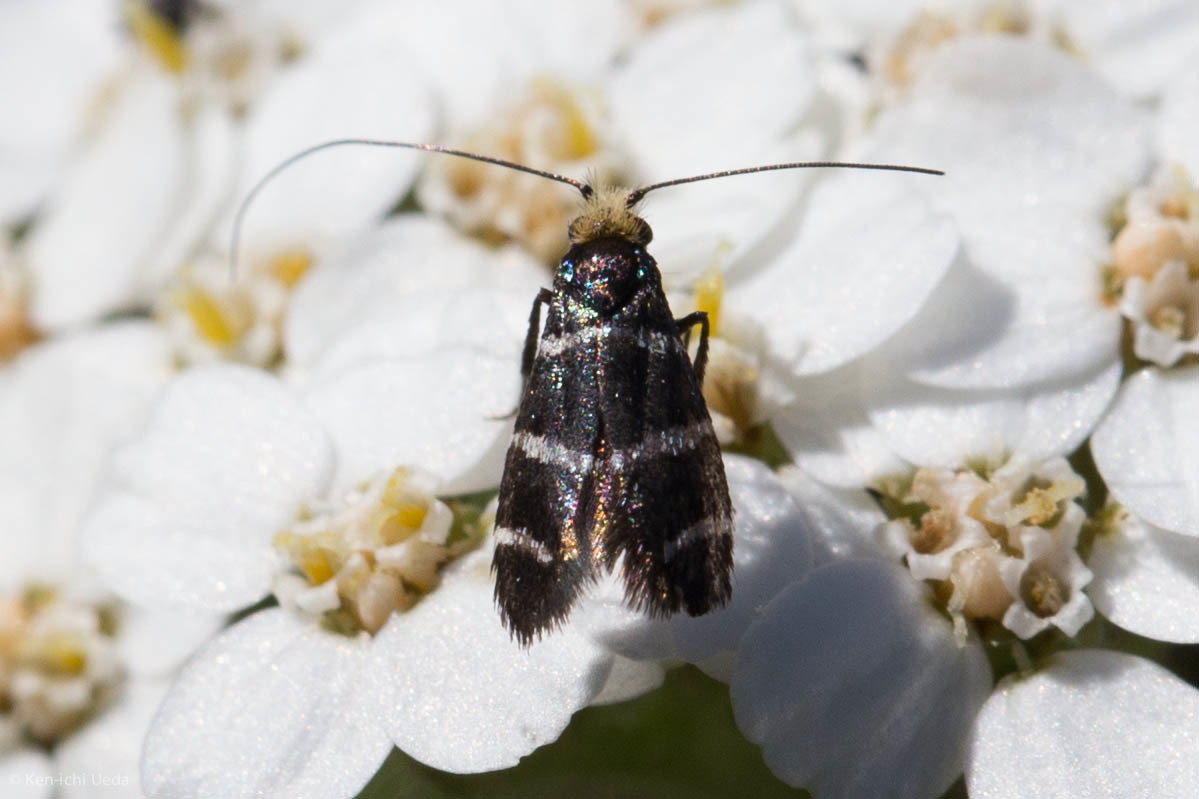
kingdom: Animalia
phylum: Arthropoda
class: Insecta
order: Lepidoptera
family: Adelidae
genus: Adela
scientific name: Adela trigrapha
